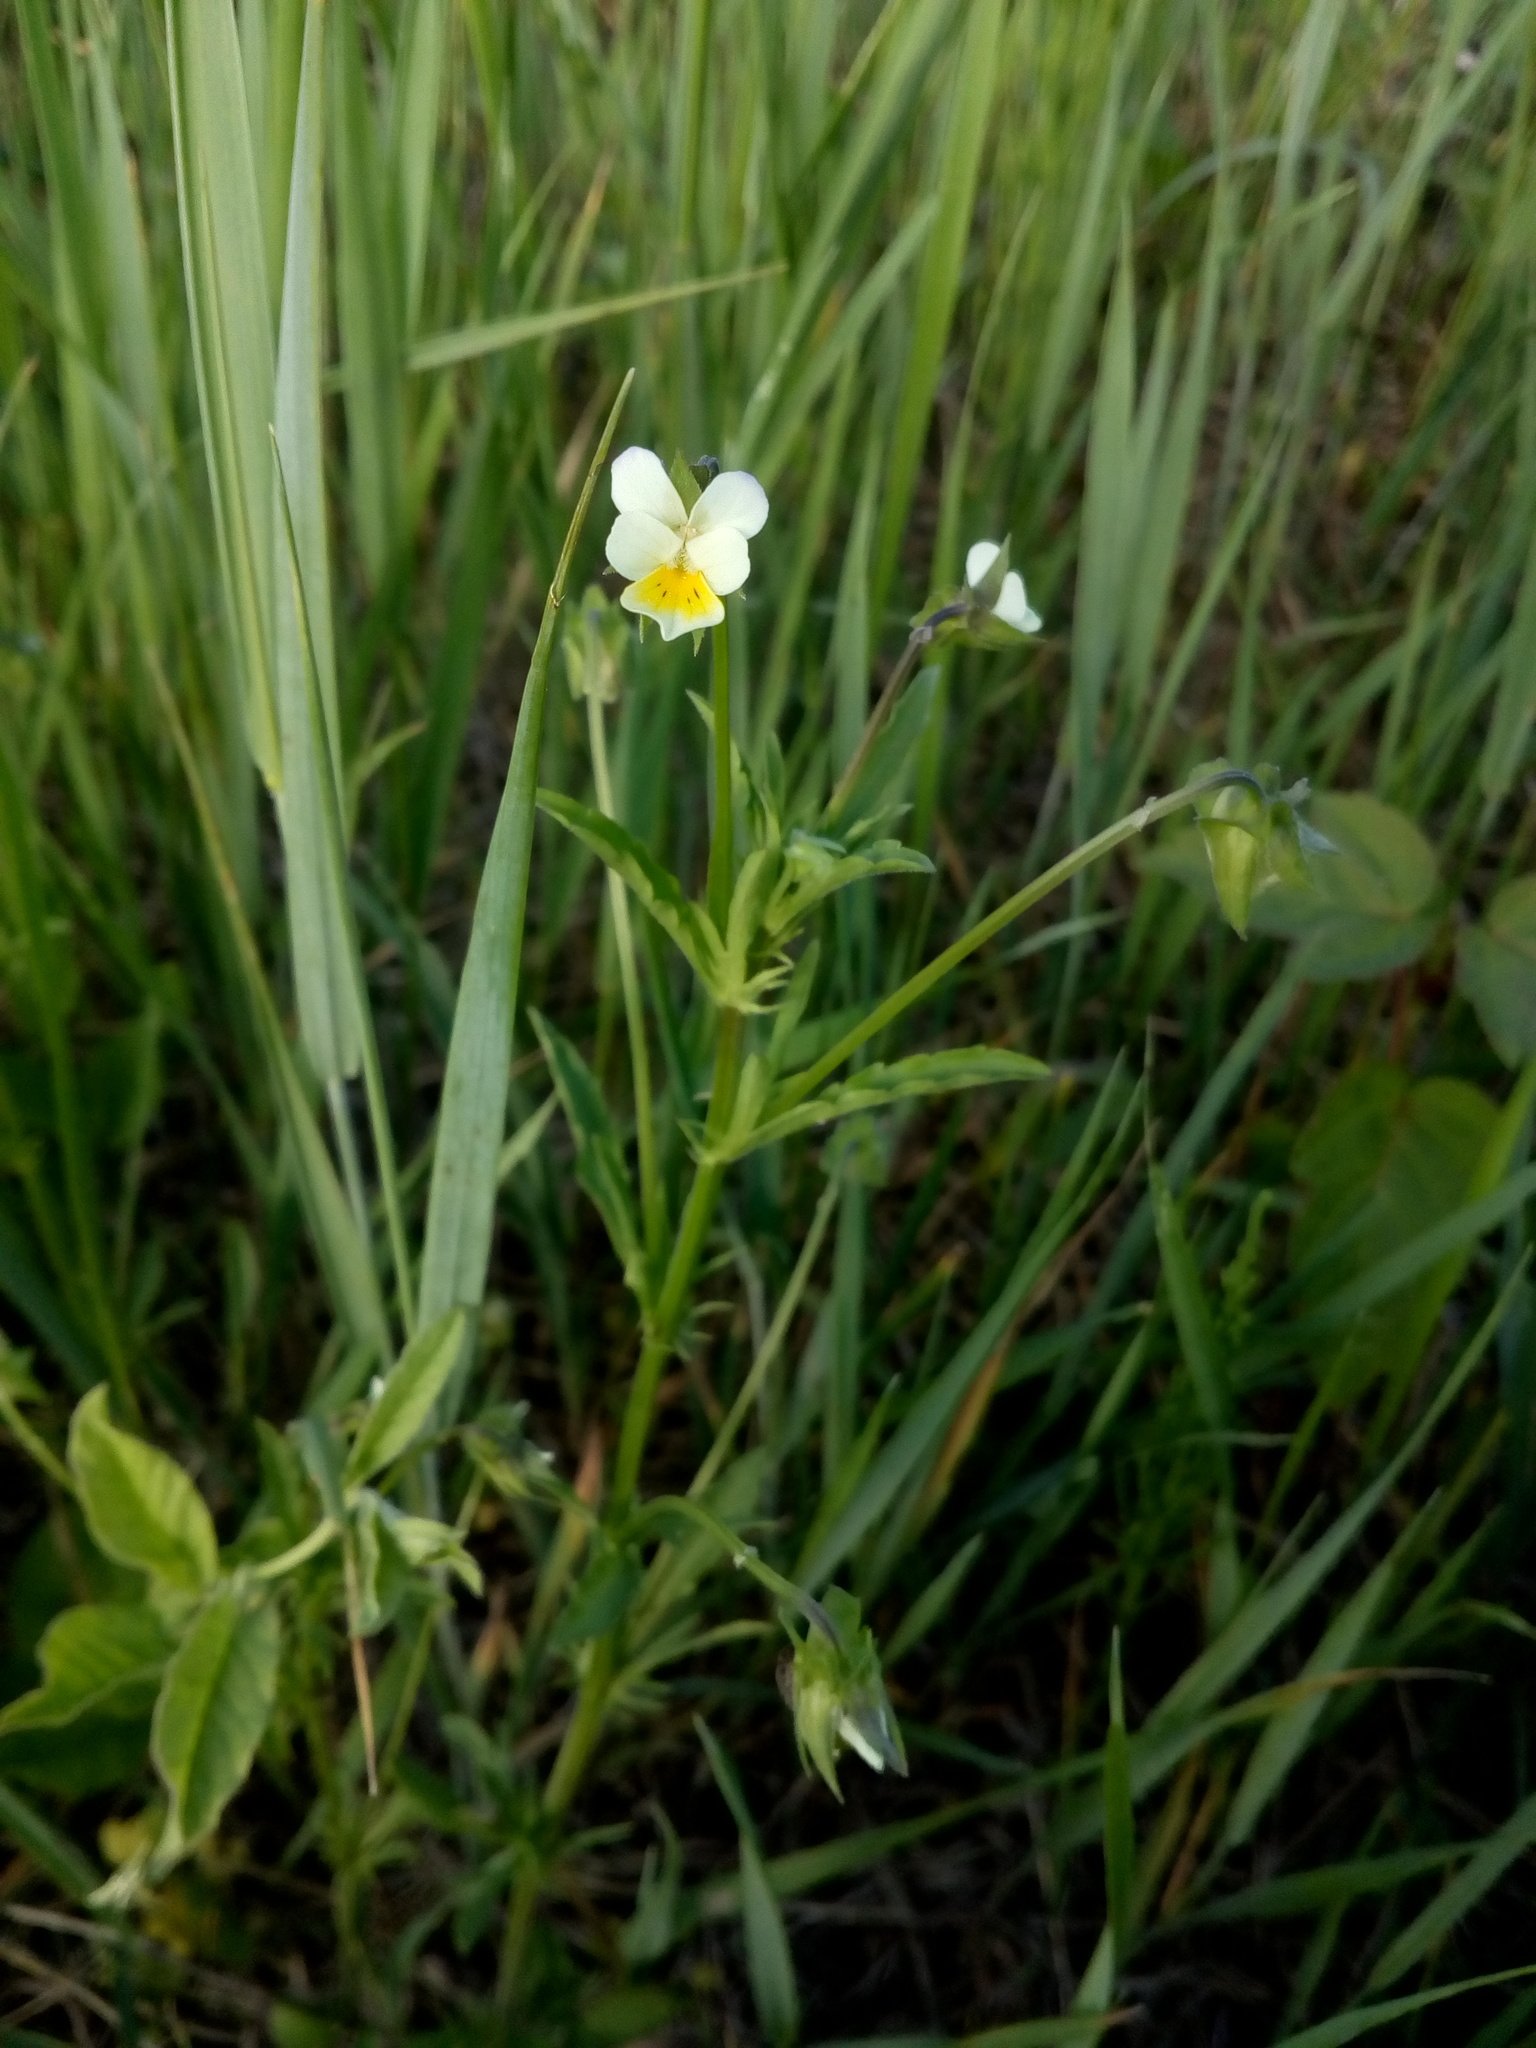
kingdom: Plantae
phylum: Tracheophyta
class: Magnoliopsida
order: Malpighiales
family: Violaceae
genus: Viola
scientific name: Viola arvensis
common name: Field pansy
